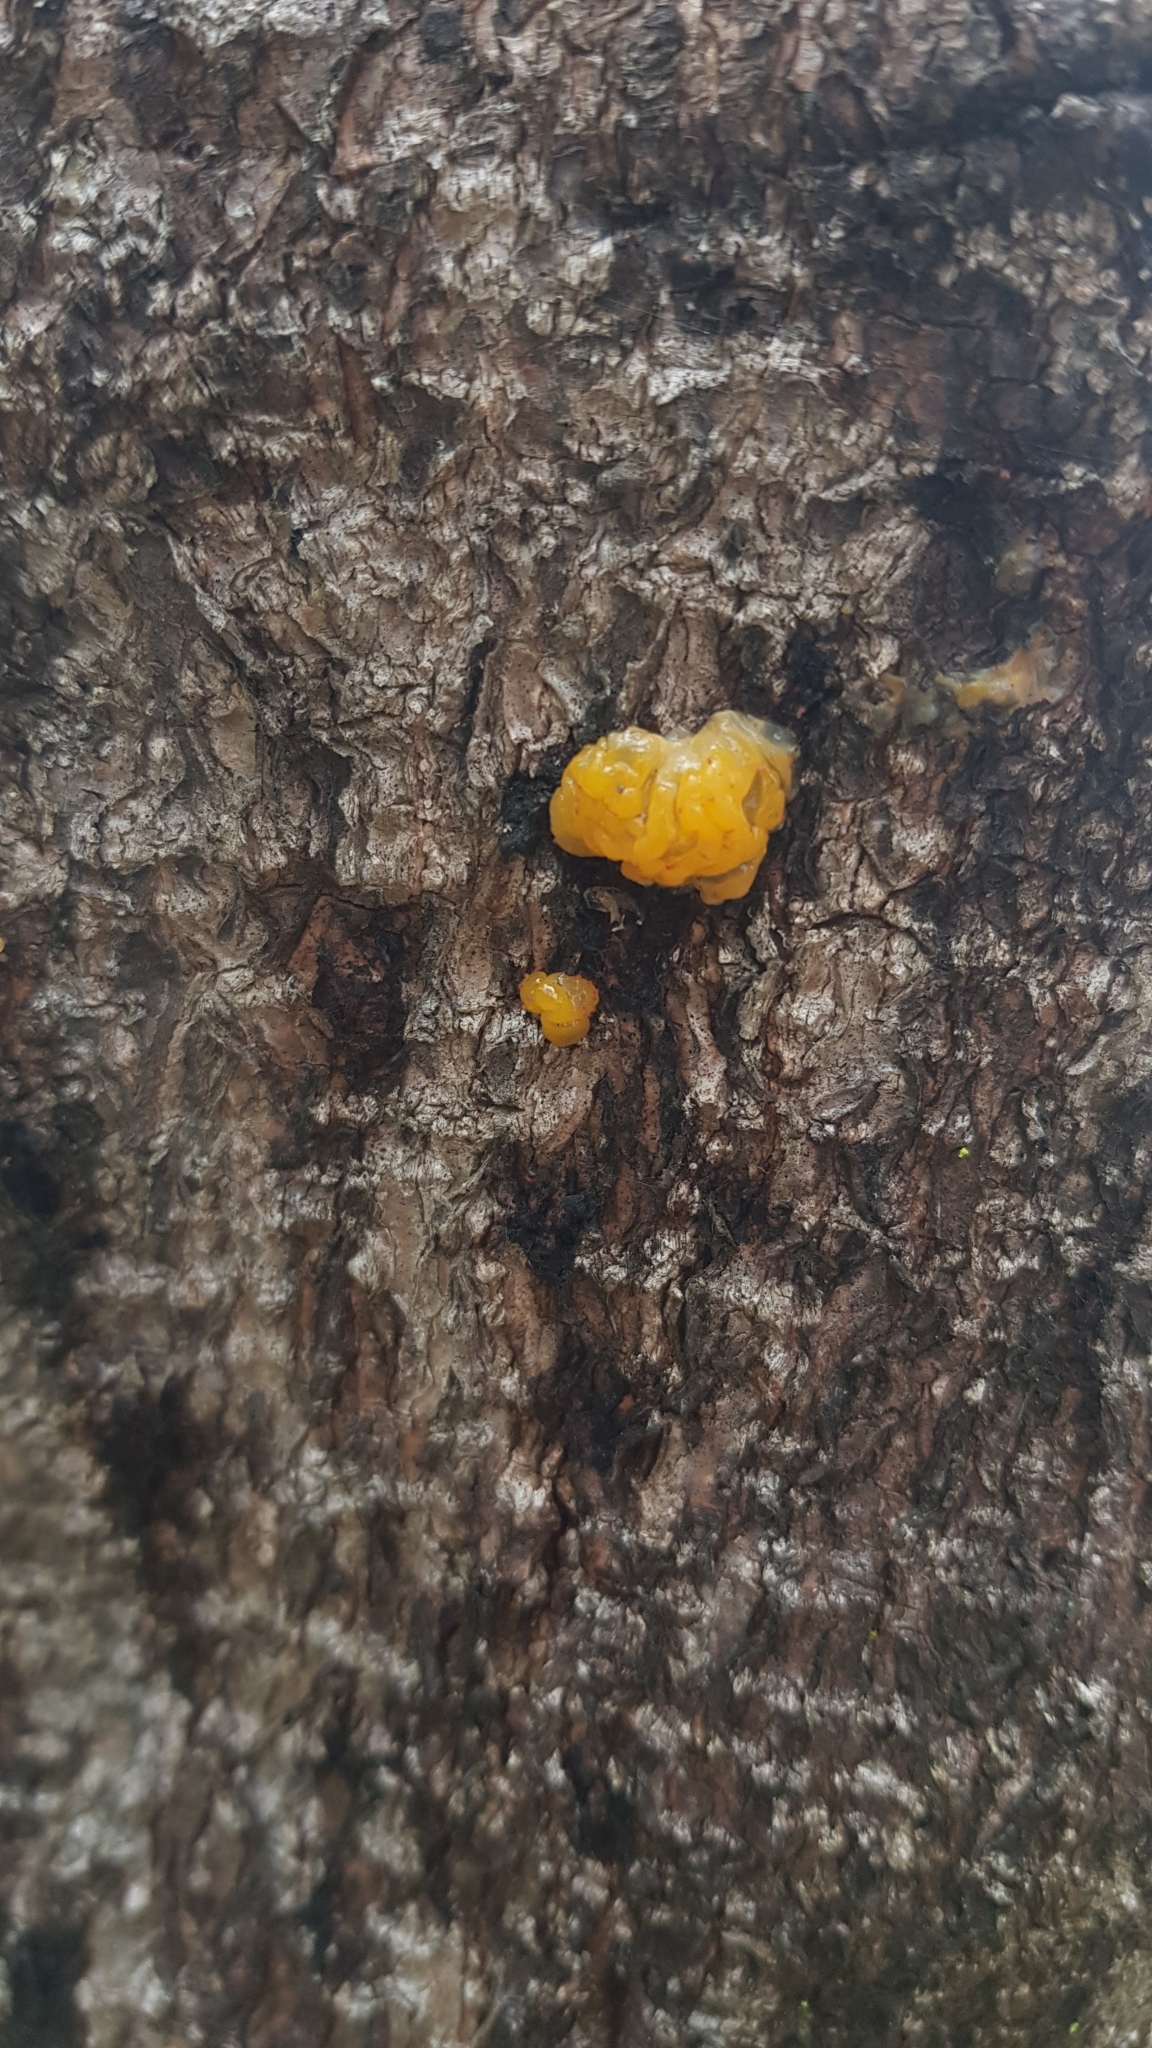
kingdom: Fungi
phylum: Basidiomycota
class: Tremellomycetes
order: Tremellales
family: Tremellaceae
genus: Tremella
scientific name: Tremella mesenterica
